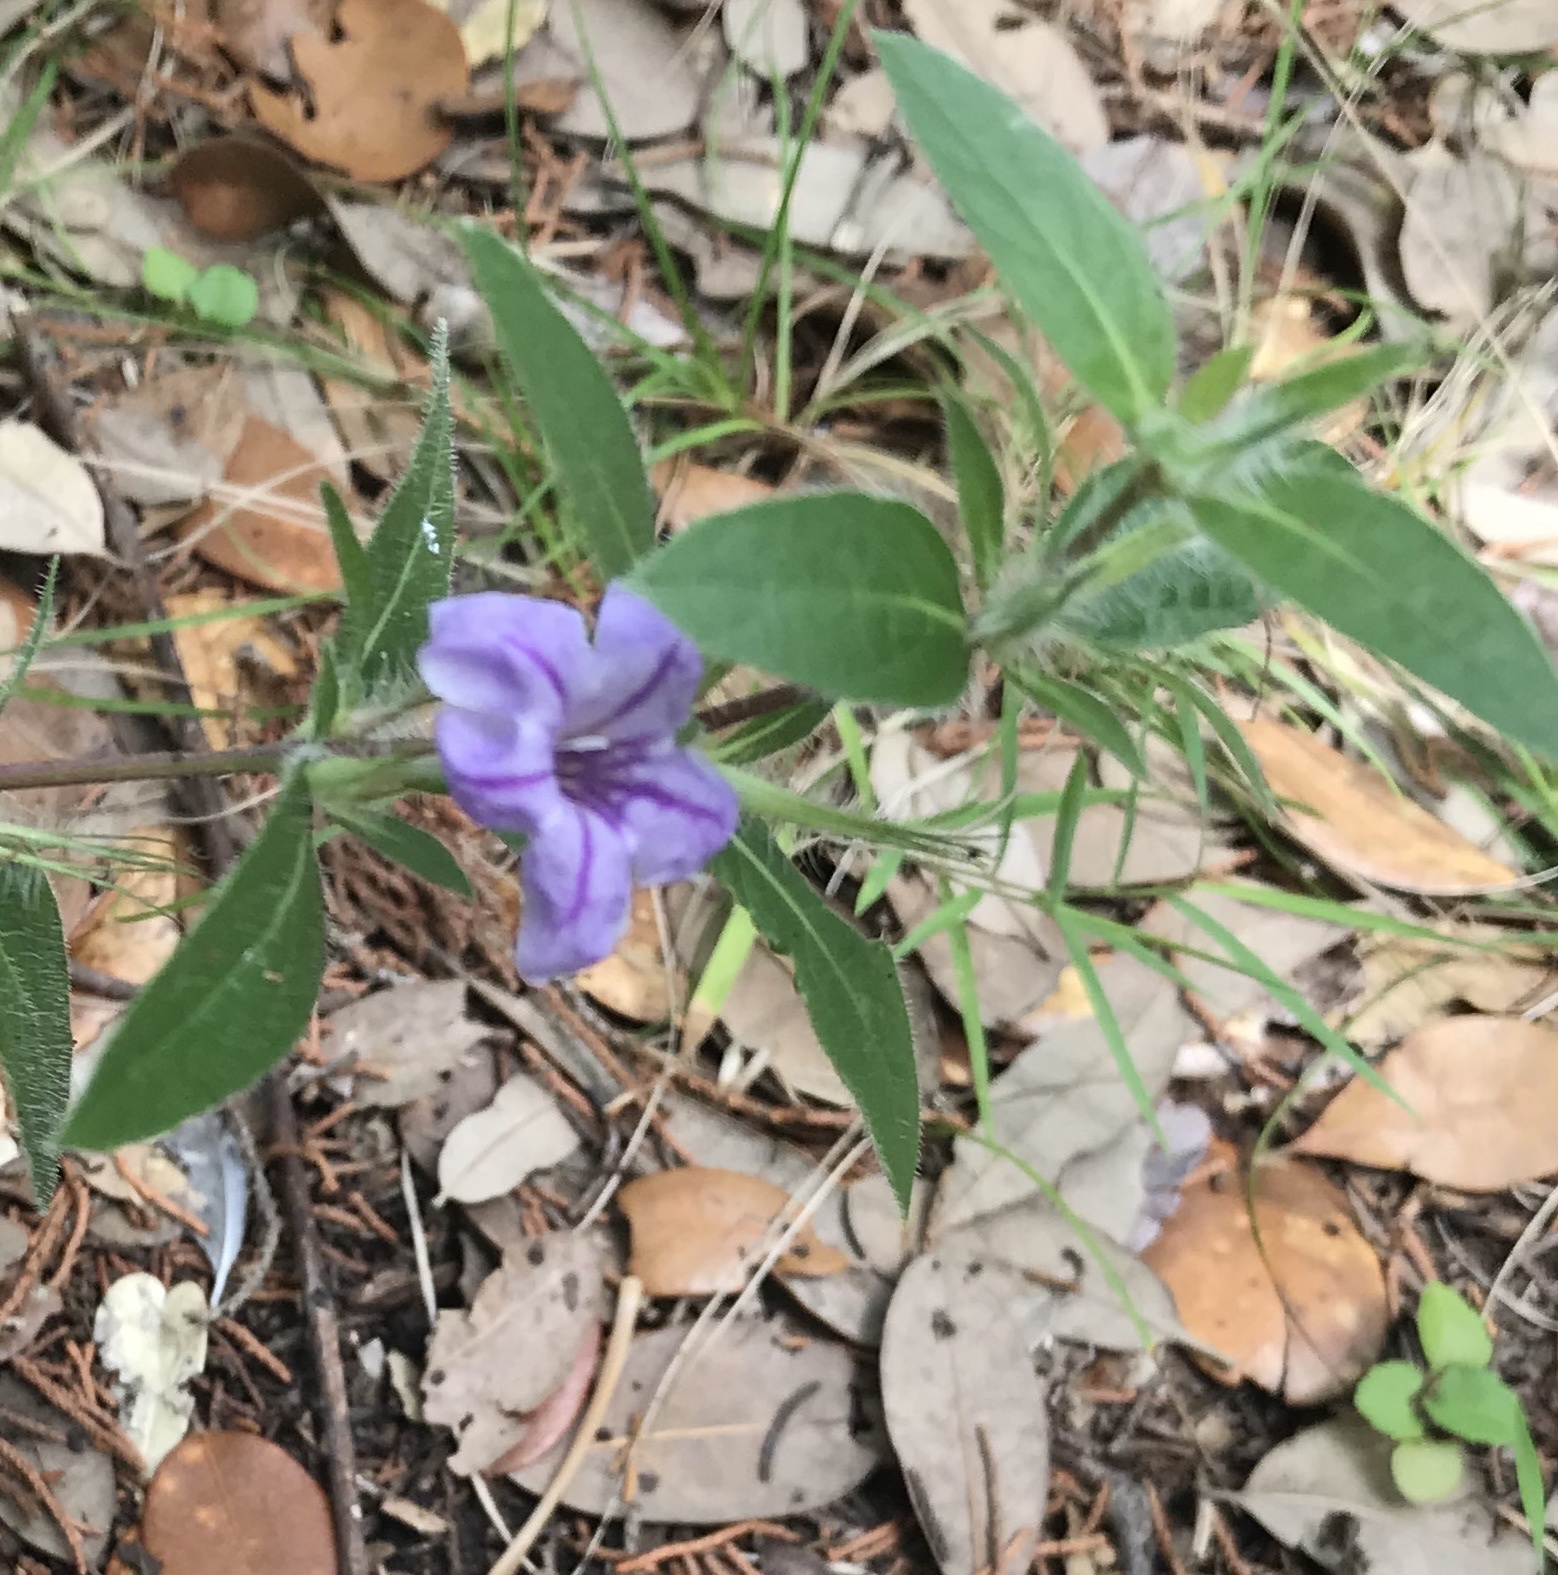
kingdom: Plantae
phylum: Tracheophyta
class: Magnoliopsida
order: Lamiales
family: Acanthaceae
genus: Ruellia
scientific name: Ruellia humilis
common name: Fringe-leaf ruellia
